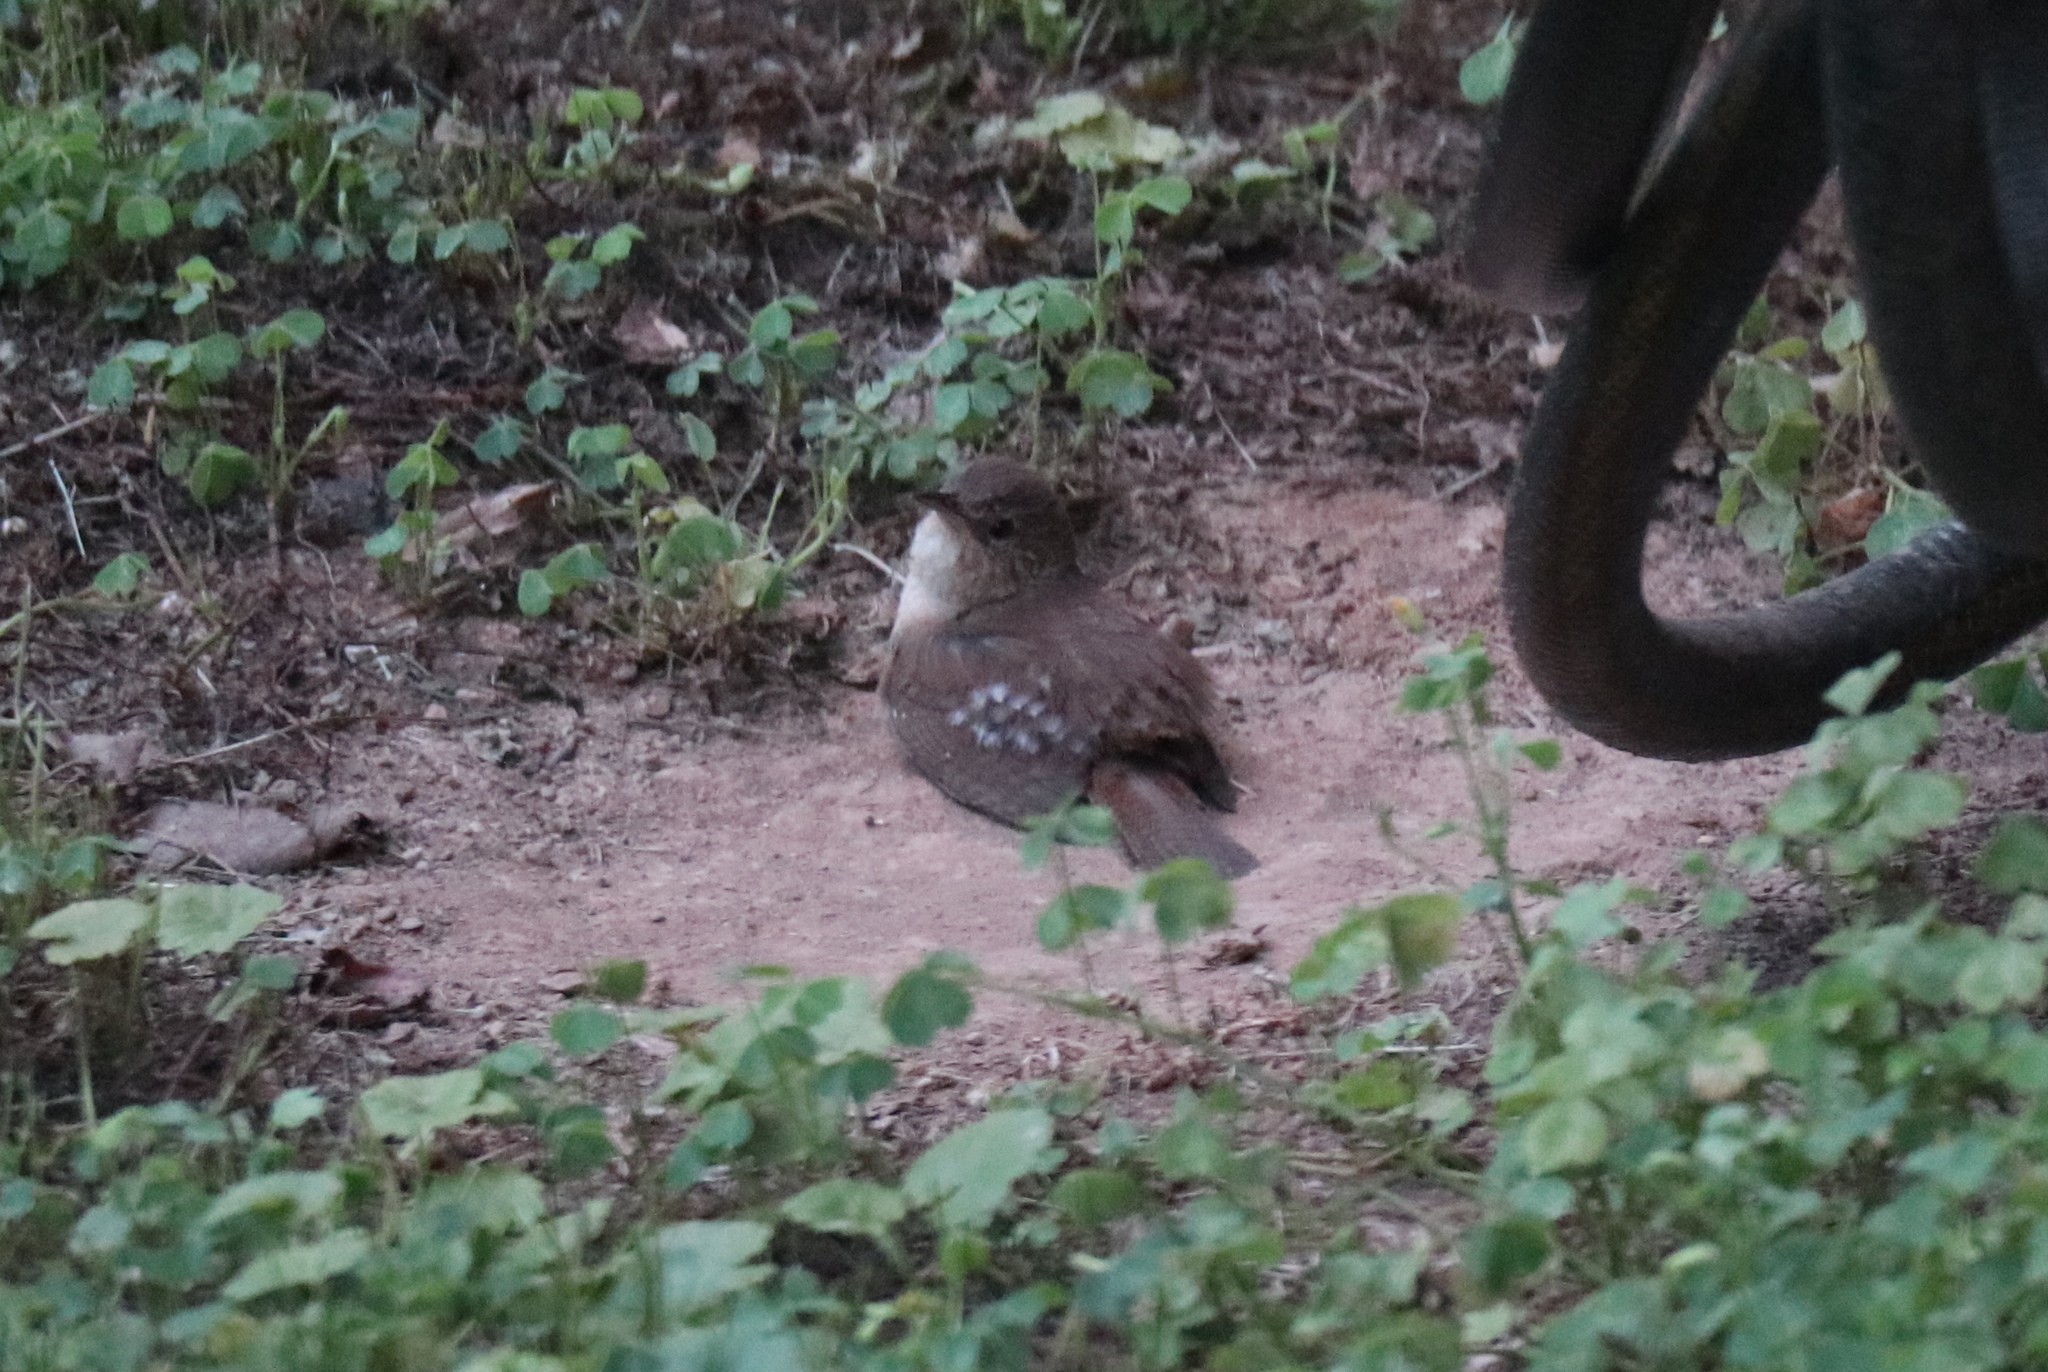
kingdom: Animalia
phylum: Chordata
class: Aves
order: Passeriformes
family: Troglodytidae
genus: Troglodytes
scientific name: Troglodytes aedon
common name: House wren
